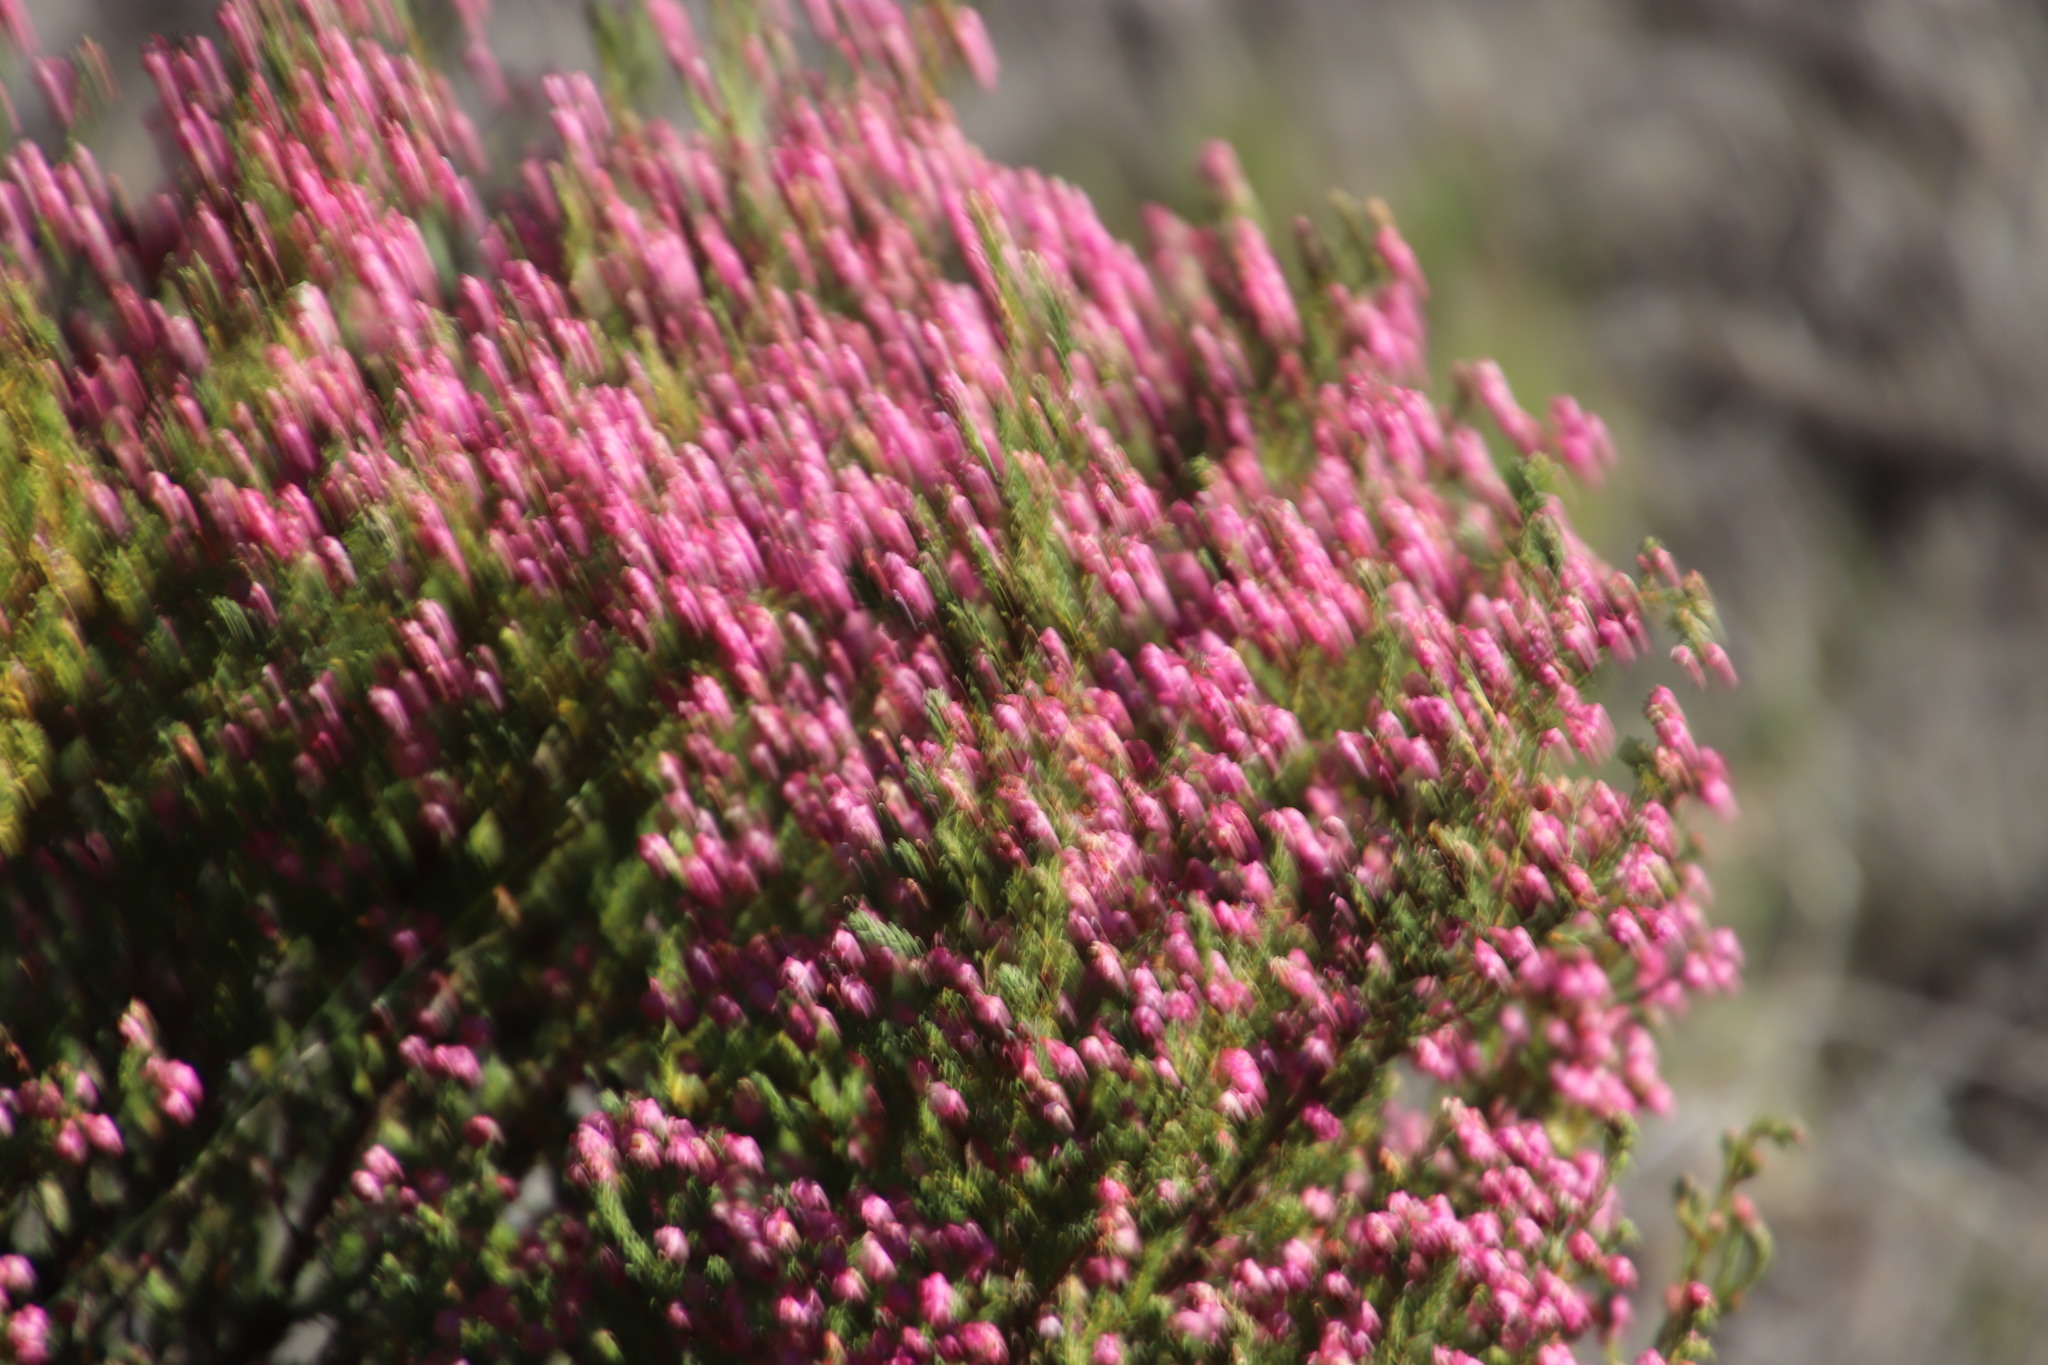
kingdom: Plantae
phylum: Tracheophyta
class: Magnoliopsida
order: Ericales
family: Ericaceae
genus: Erica
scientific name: Erica baccans
